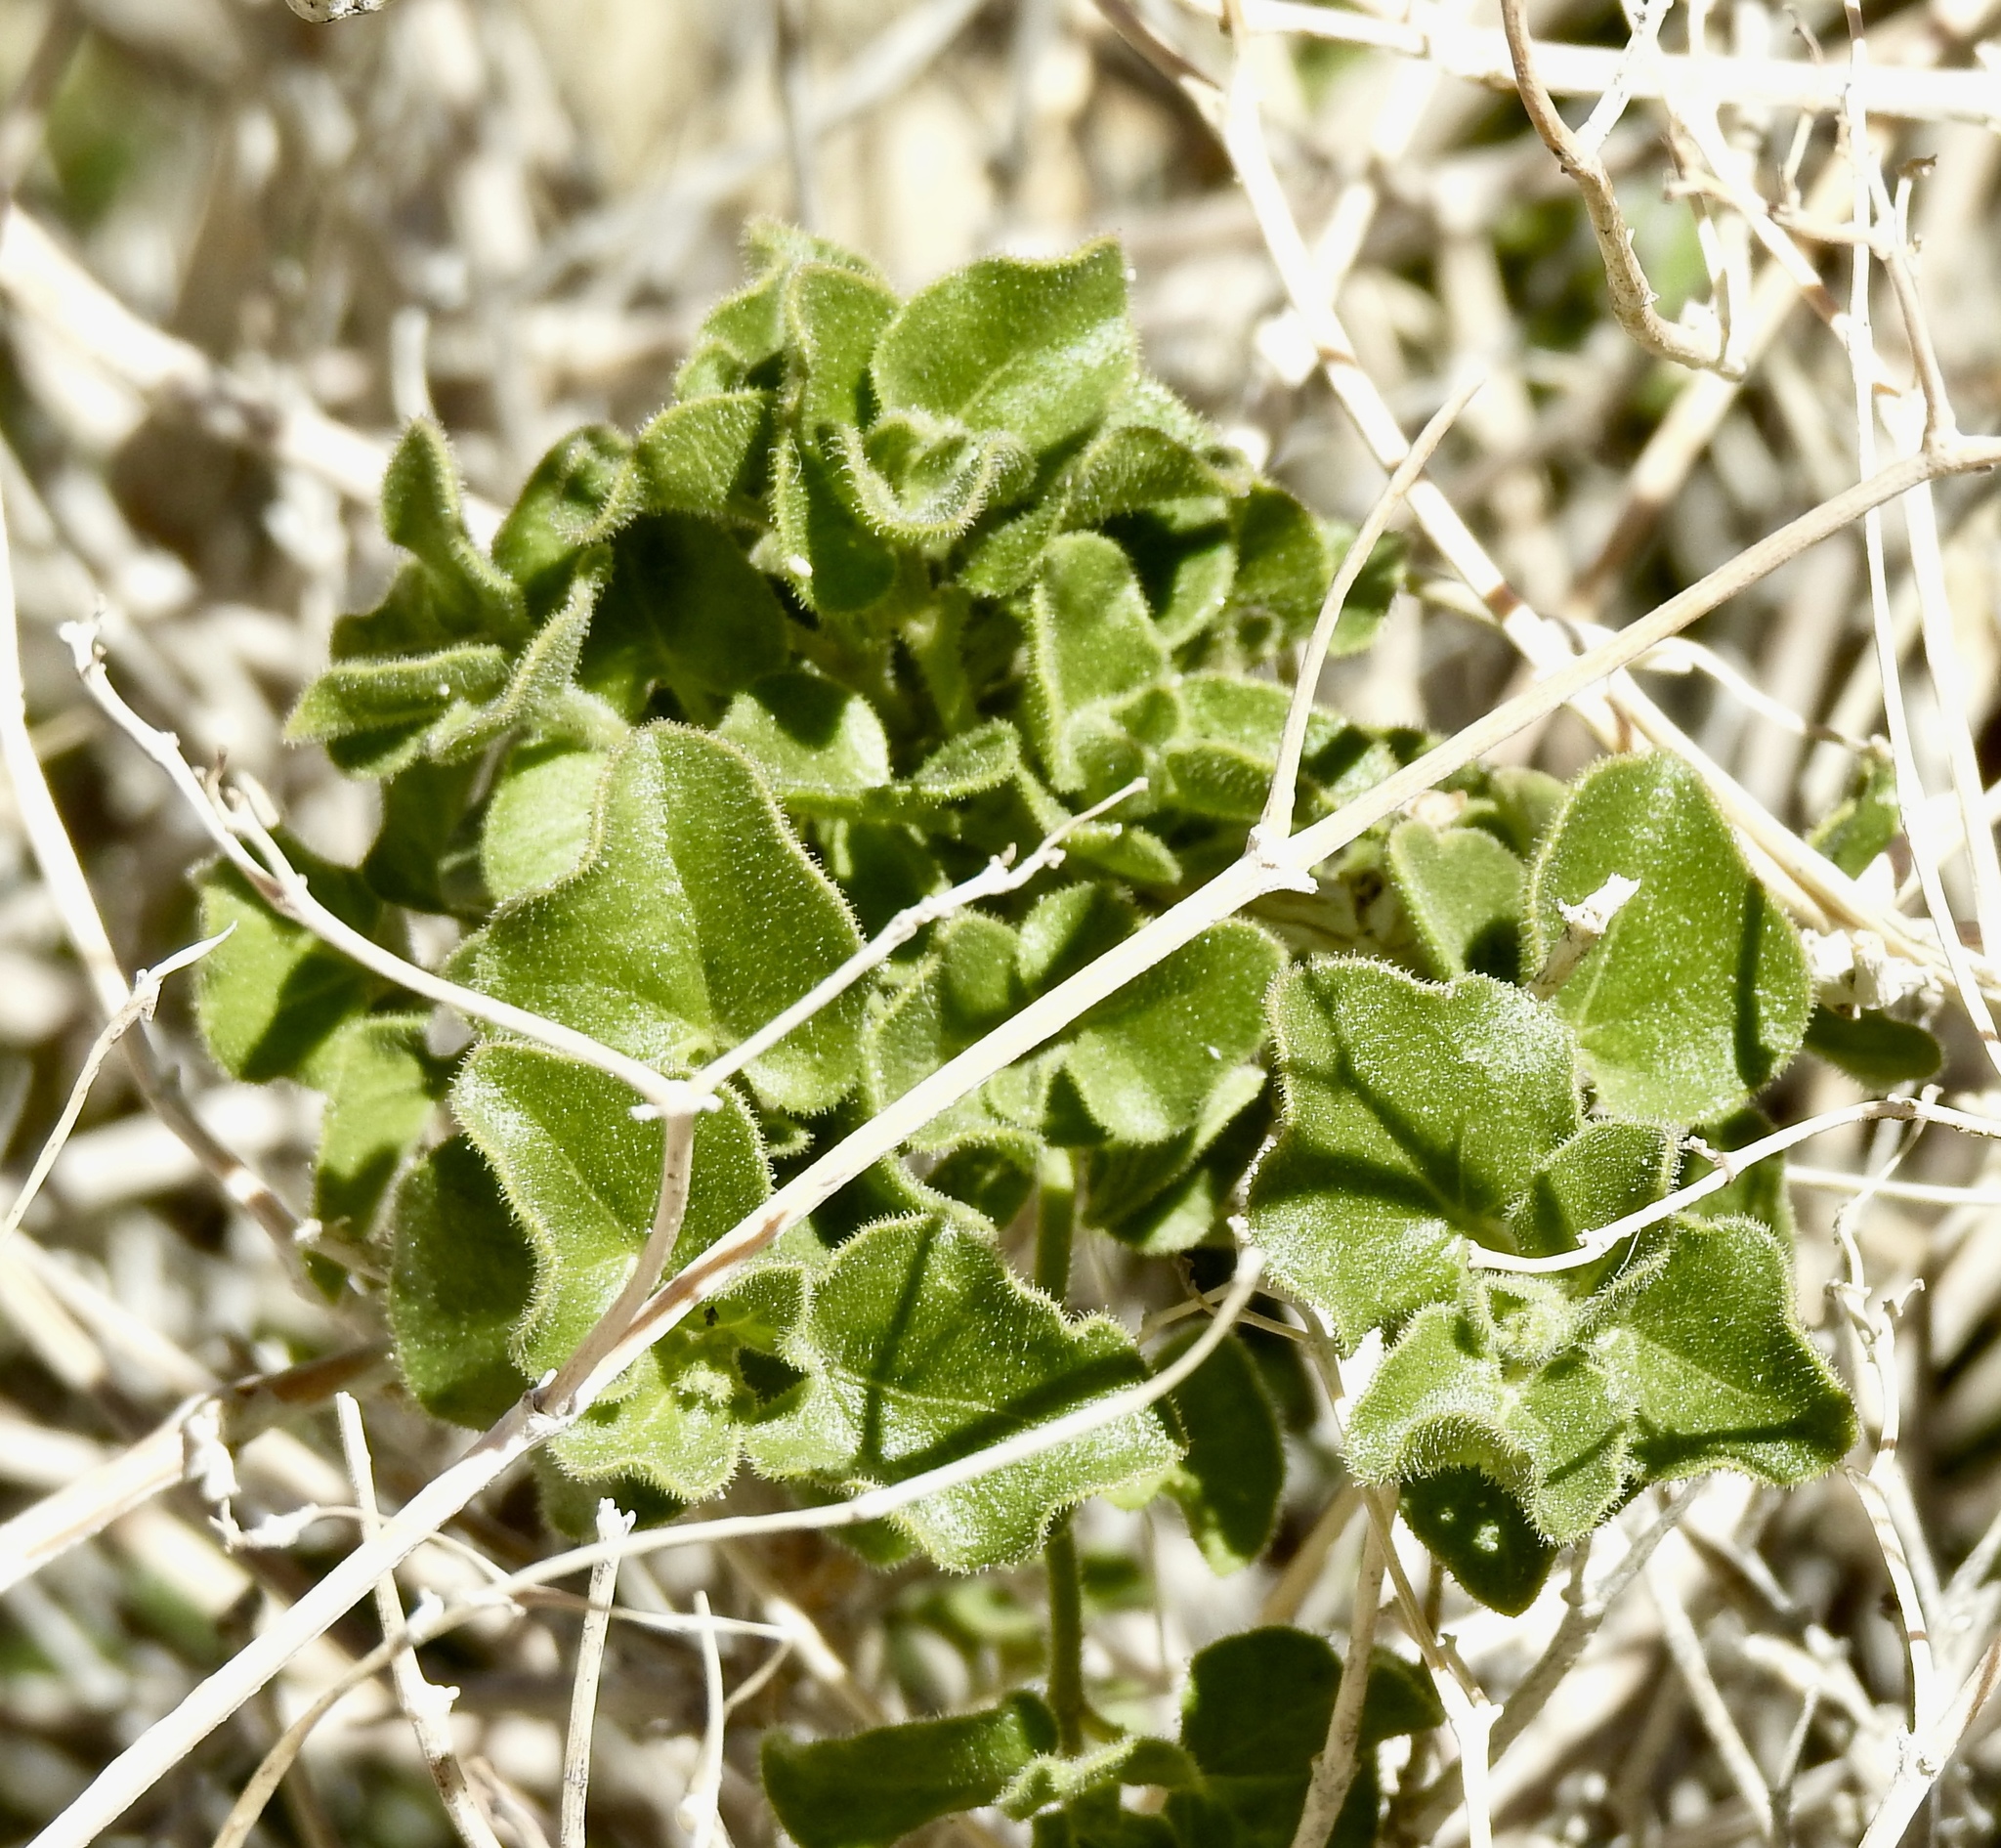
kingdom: Plantae
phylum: Tracheophyta
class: Magnoliopsida
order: Caryophyllales
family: Nyctaginaceae
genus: Mirabilis
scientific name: Mirabilis laevis
